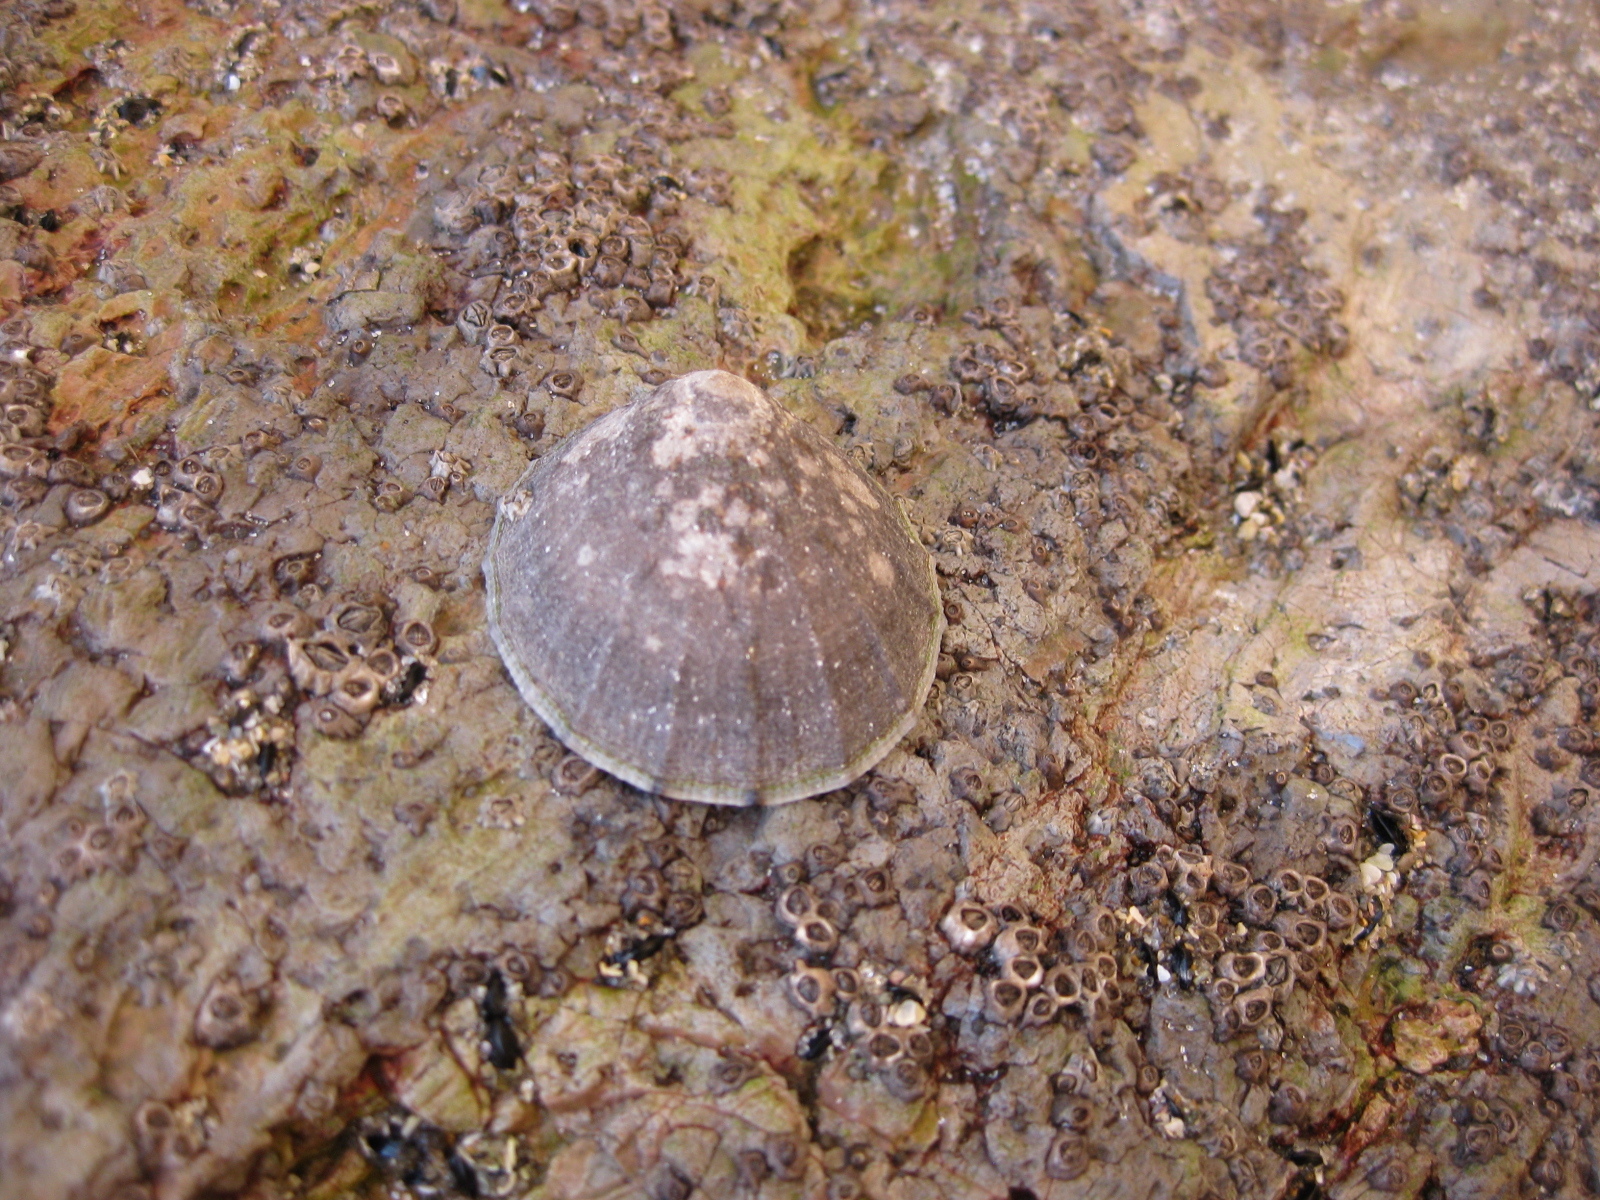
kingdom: Animalia
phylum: Mollusca
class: Gastropoda
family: Nacellidae
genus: Cellana
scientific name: Cellana radians
